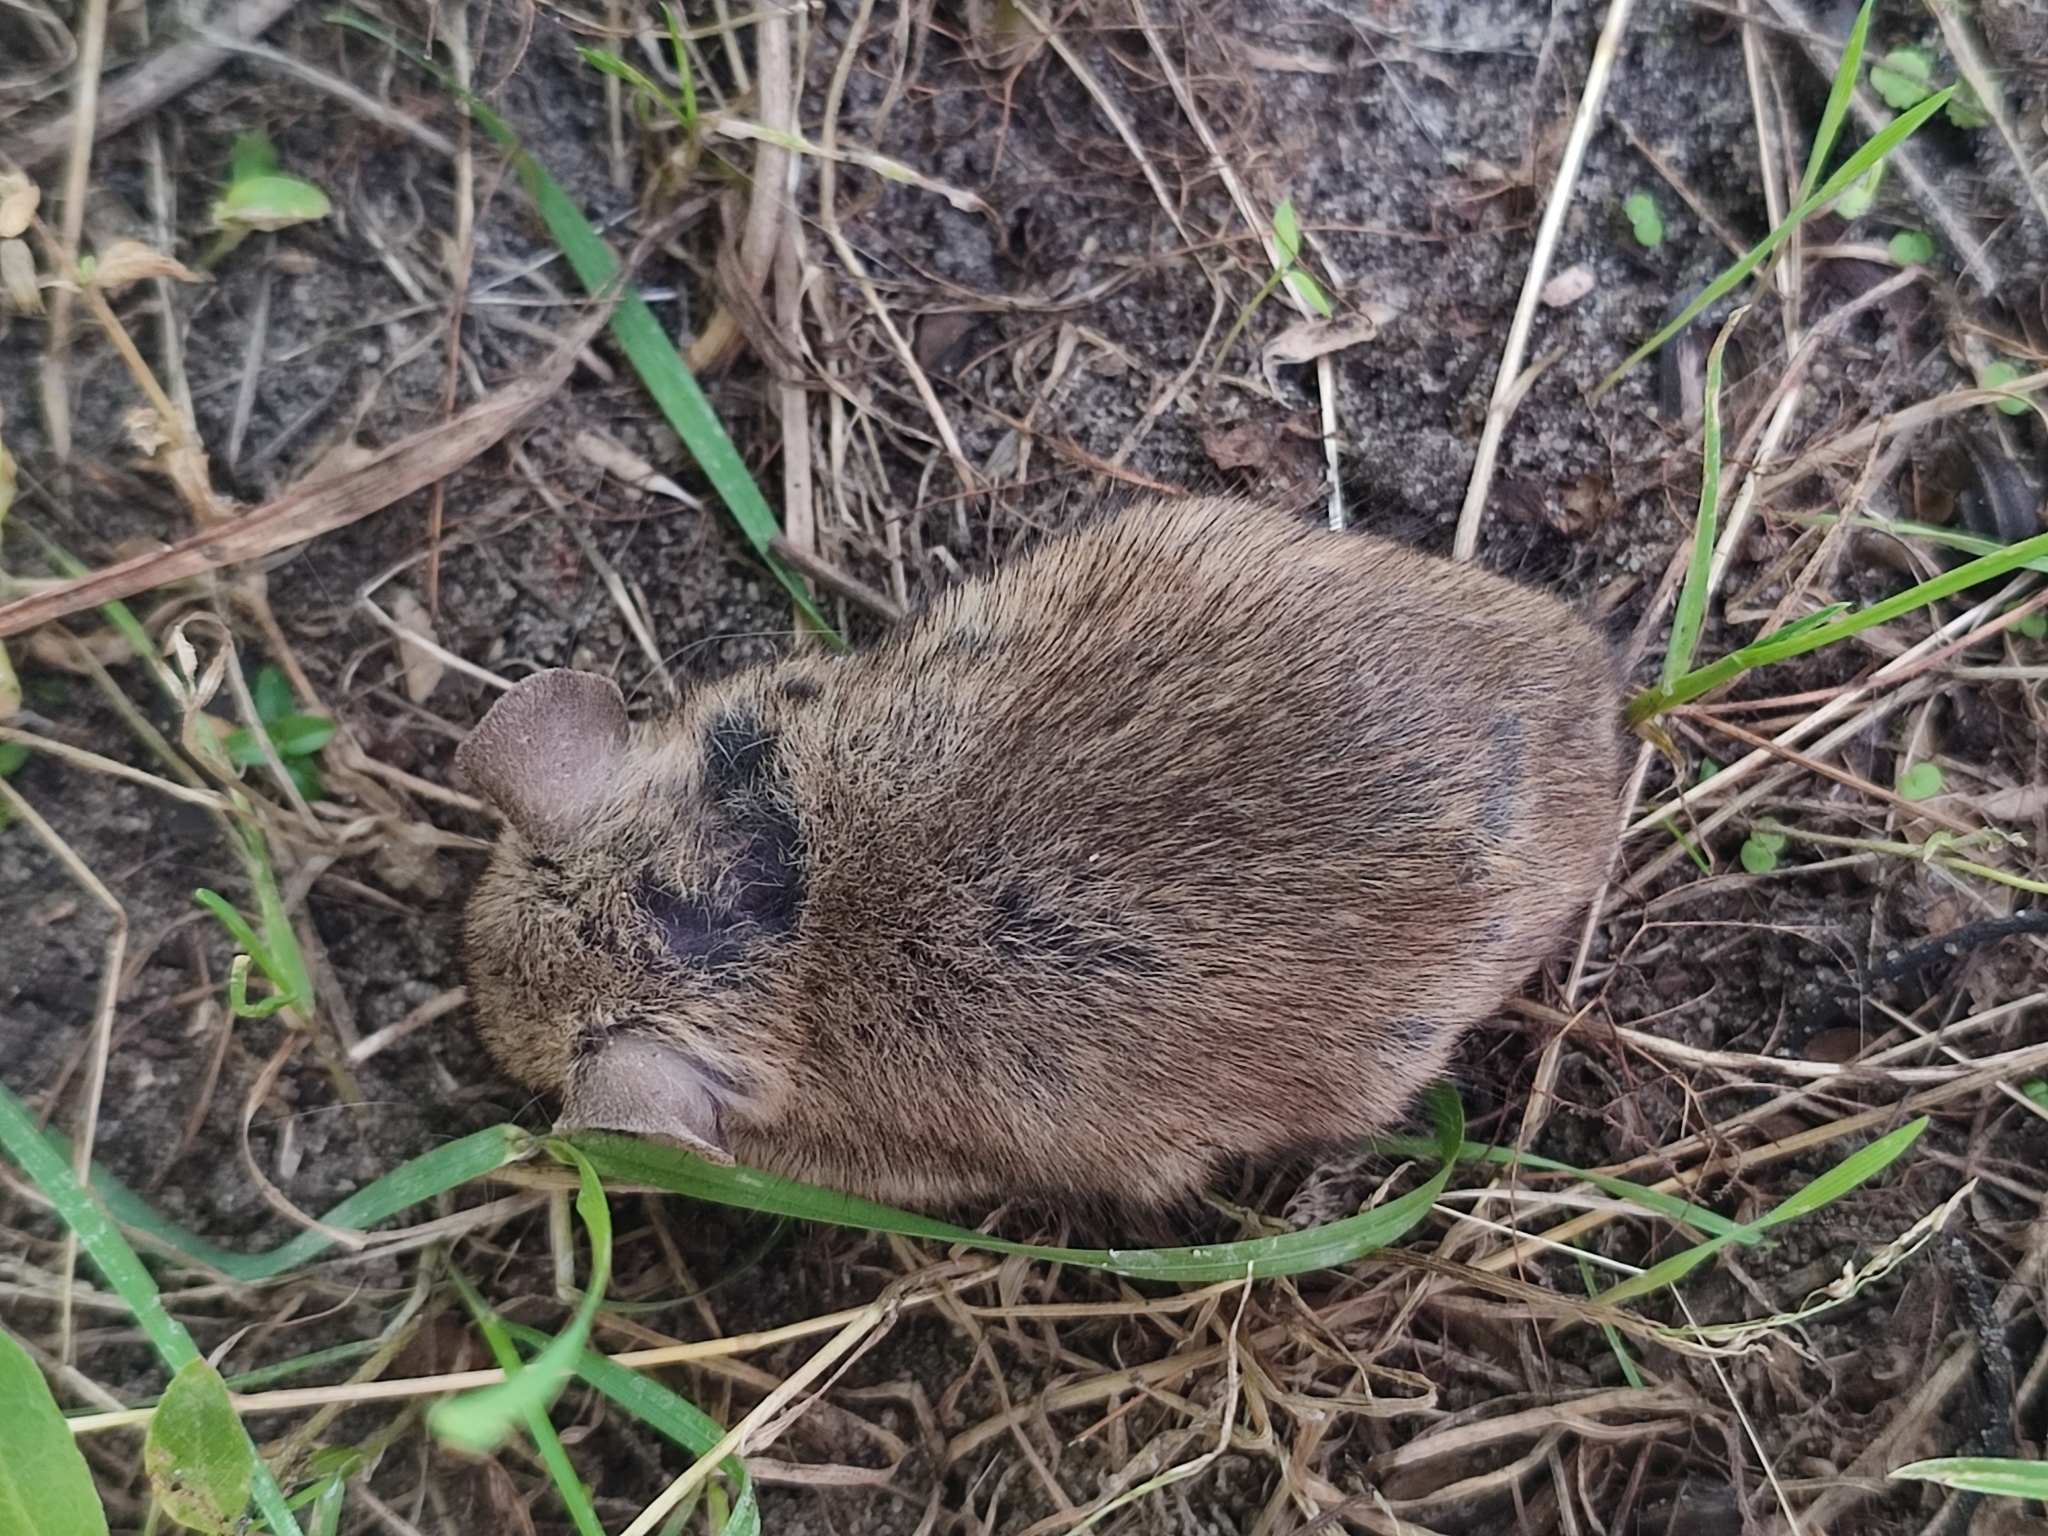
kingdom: Animalia
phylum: Chordata
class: Mammalia
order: Rodentia
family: Muridae
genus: Apodemus
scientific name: Apodemus flavicollis
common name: Yellow-necked field mouse
